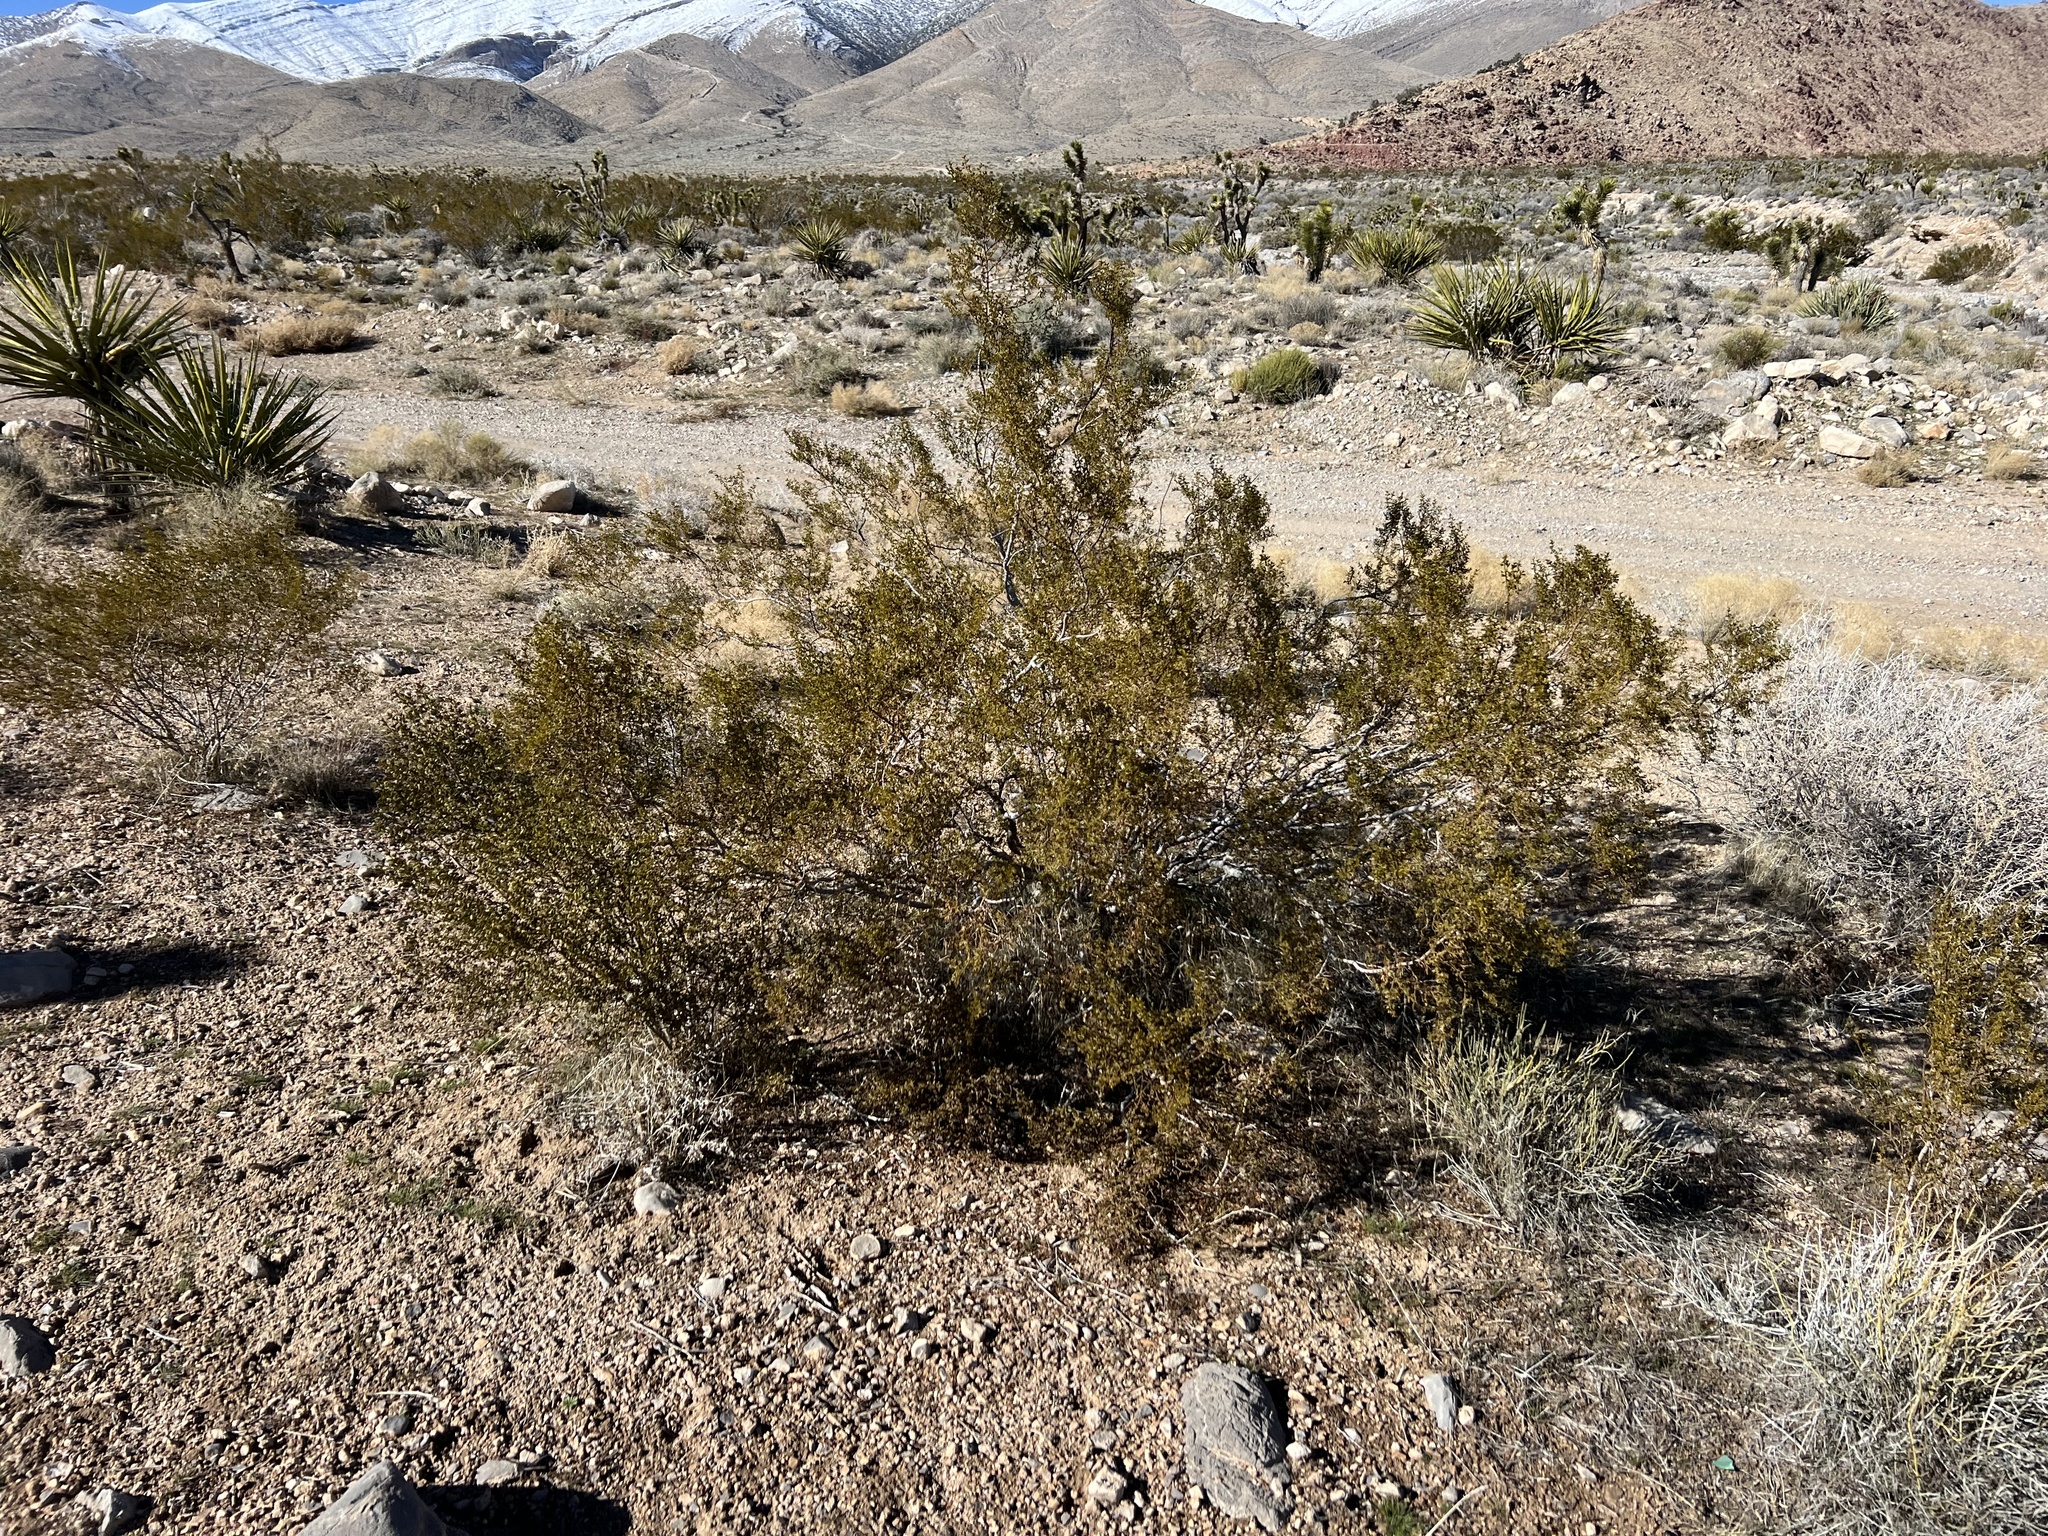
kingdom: Plantae
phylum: Tracheophyta
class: Magnoliopsida
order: Zygophyllales
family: Zygophyllaceae
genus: Larrea
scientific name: Larrea tridentata
